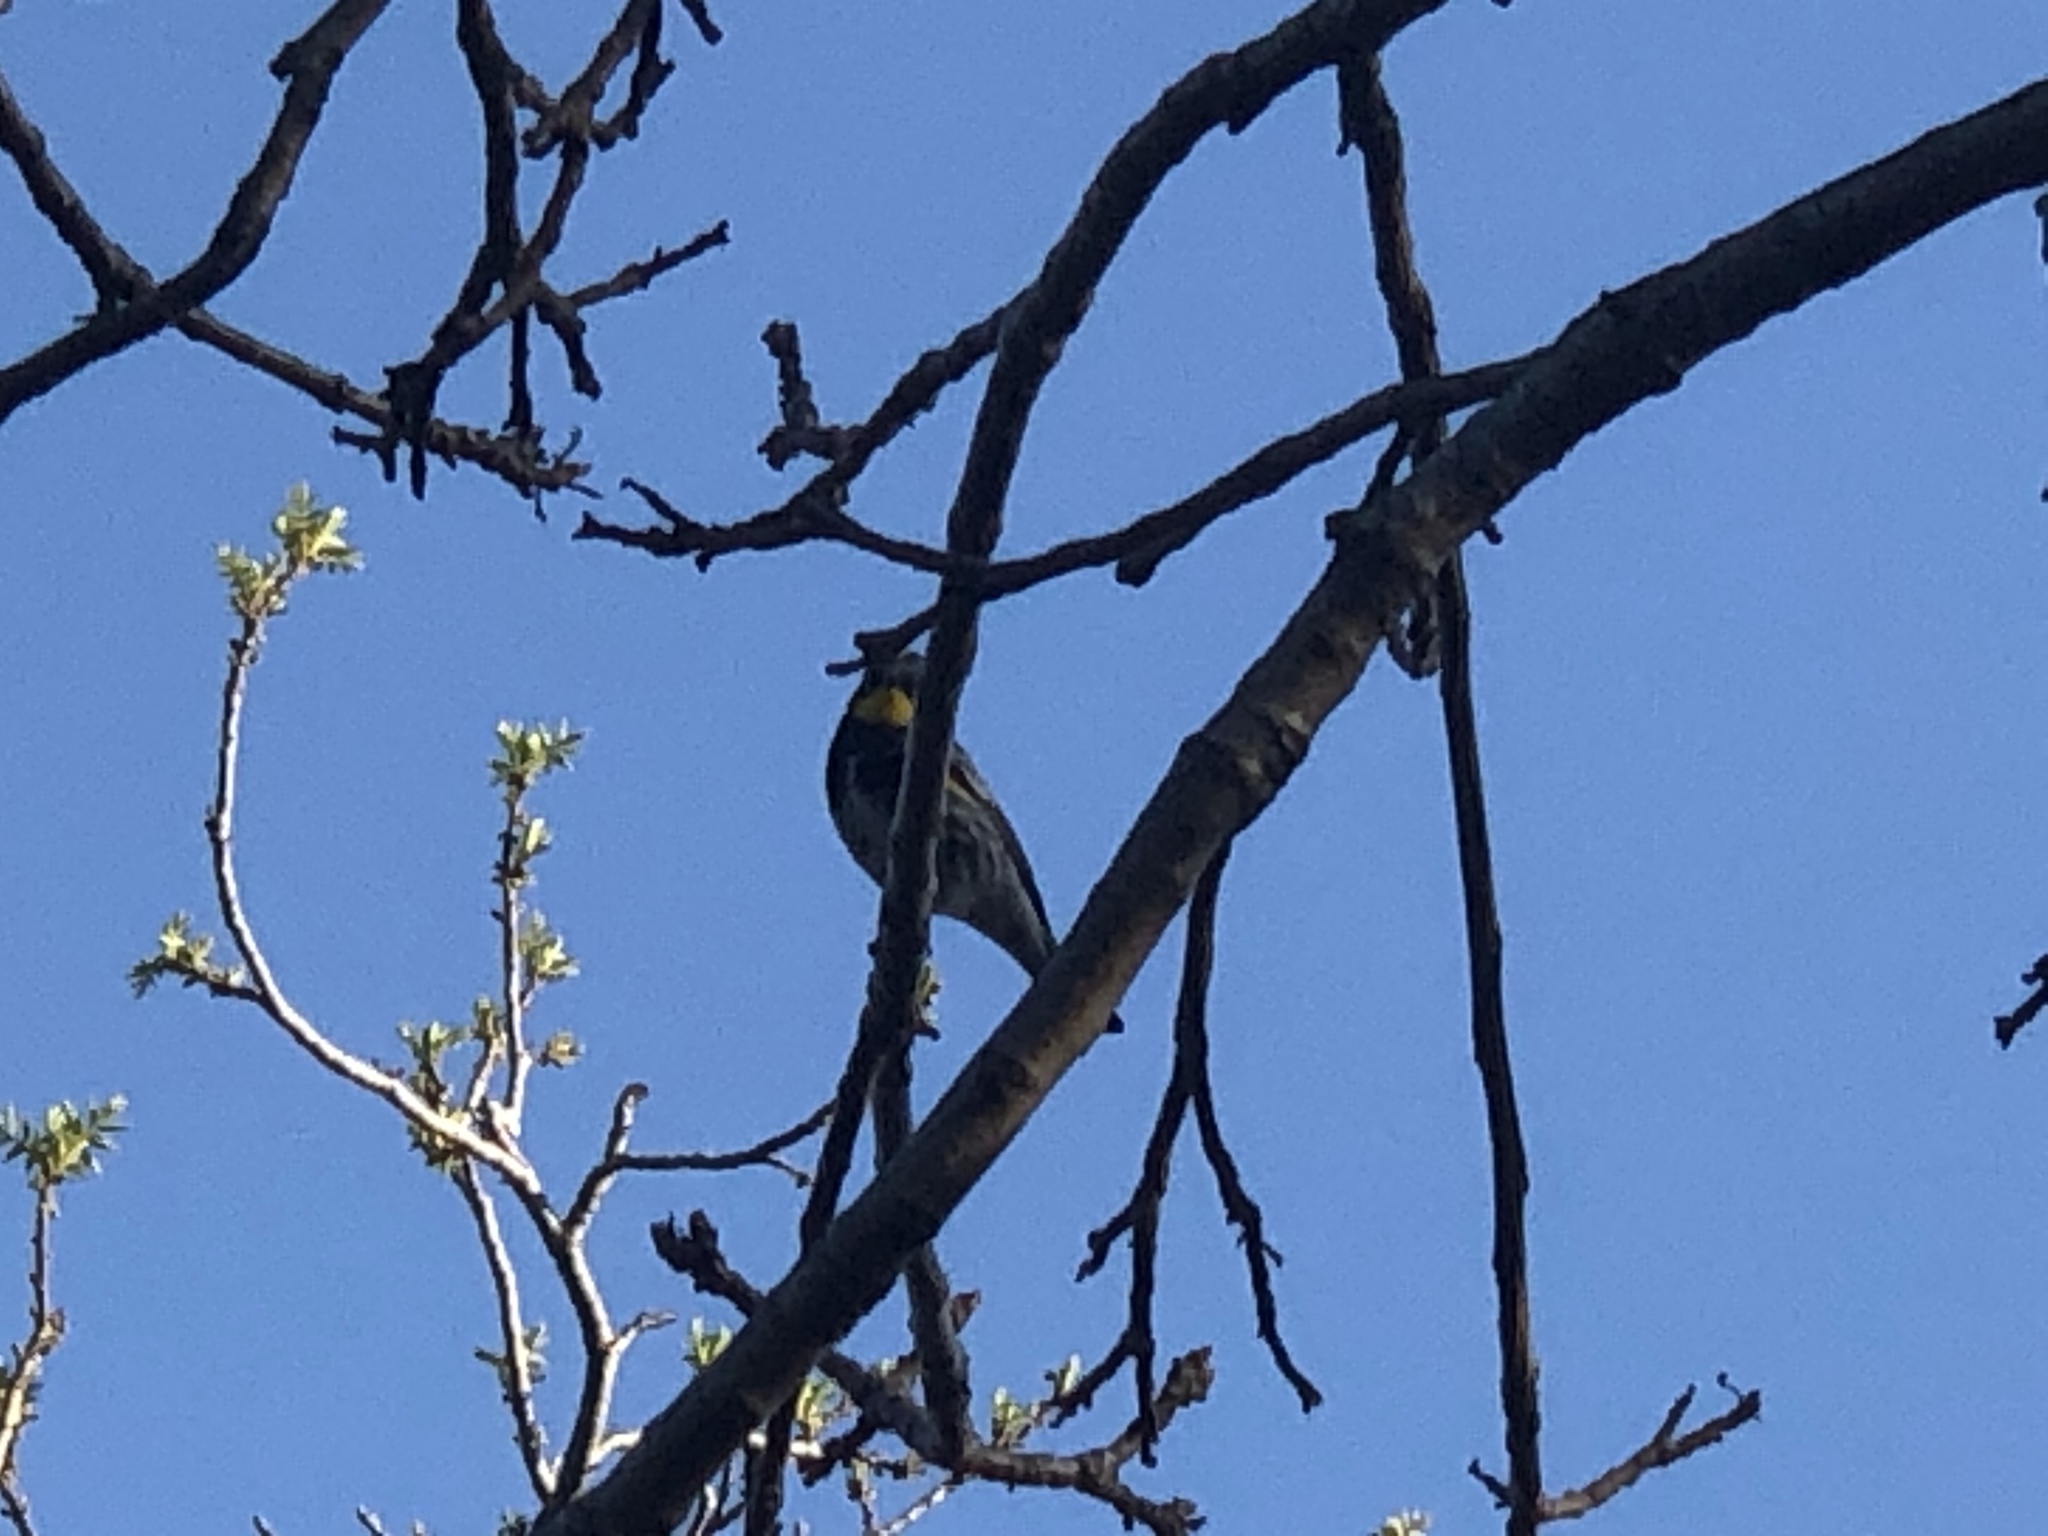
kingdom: Animalia
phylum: Chordata
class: Aves
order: Passeriformes
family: Parulidae
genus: Setophaga
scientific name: Setophaga auduboni
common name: Audubon's warbler
